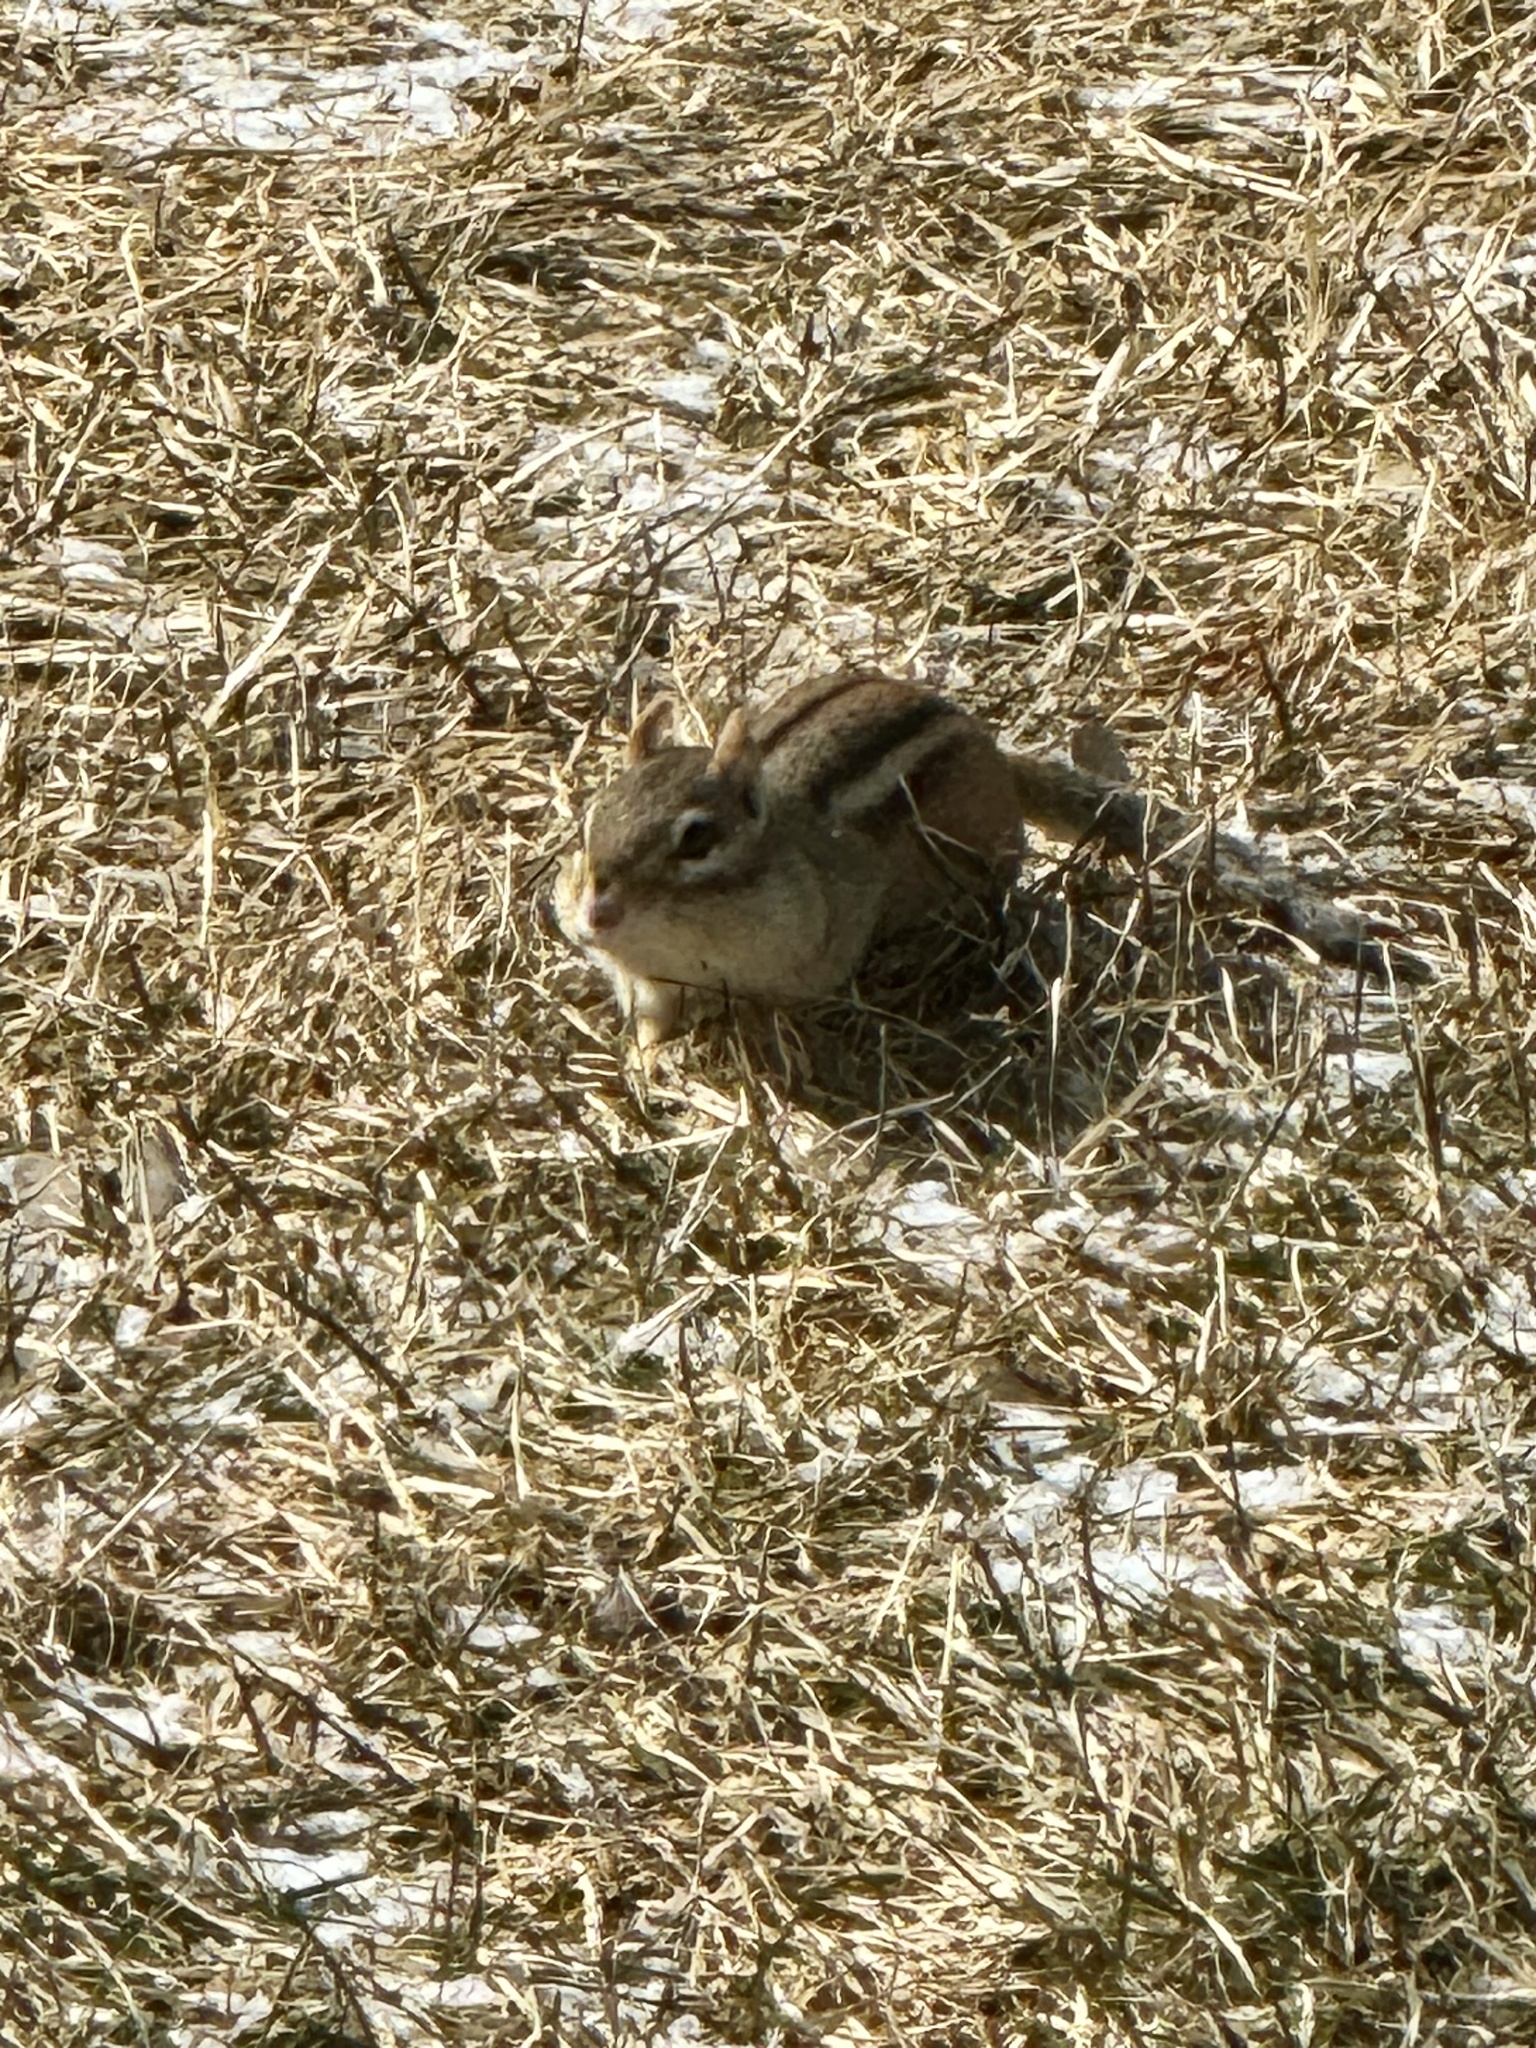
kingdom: Animalia
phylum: Chordata
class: Mammalia
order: Rodentia
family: Sciuridae
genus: Tamias
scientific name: Tamias striatus
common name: Eastern chipmunk
